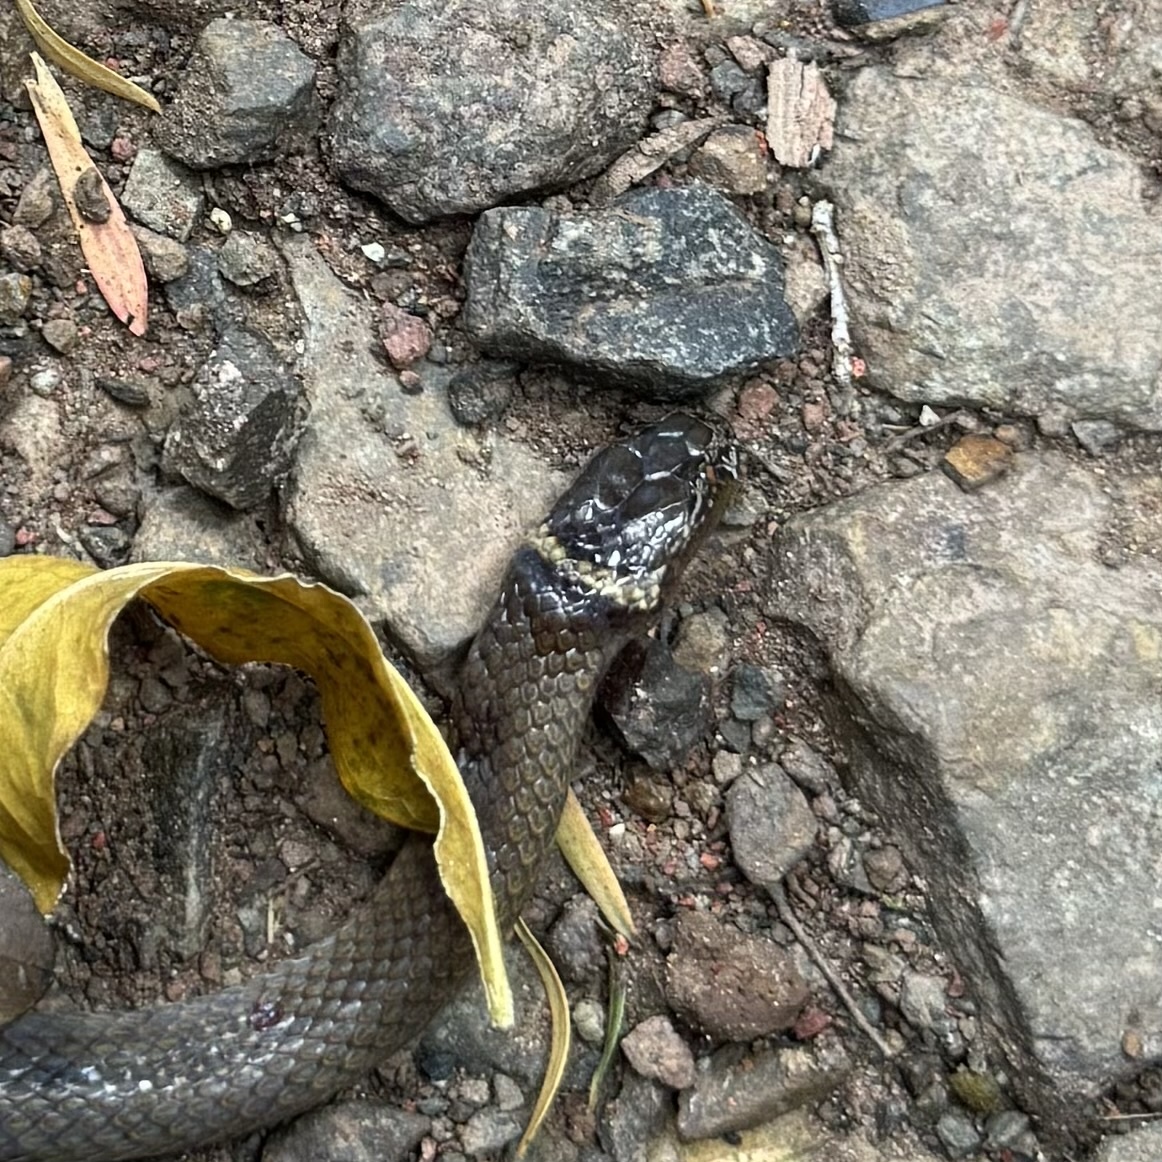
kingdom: Animalia
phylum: Chordata
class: Squamata
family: Elapidae
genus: Cacophis
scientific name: Cacophis krefftii
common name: Dwarf crowned snake
